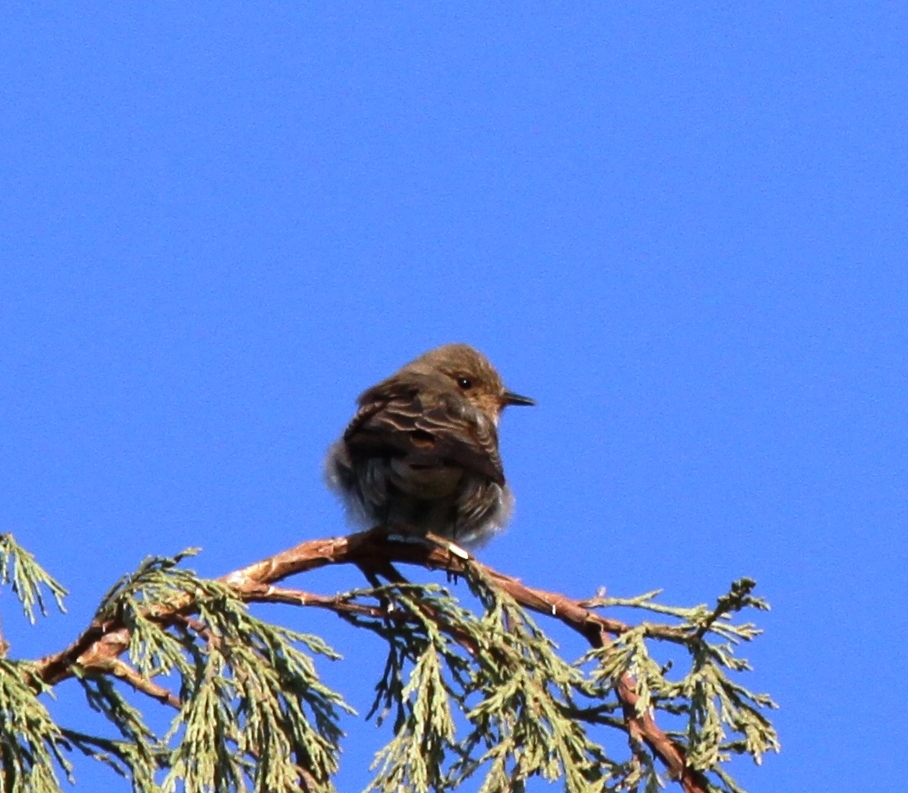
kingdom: Animalia
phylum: Chordata
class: Aves
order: Passeriformes
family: Muscicapidae
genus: Muscicapa
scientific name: Muscicapa striata
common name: Spotted flycatcher
